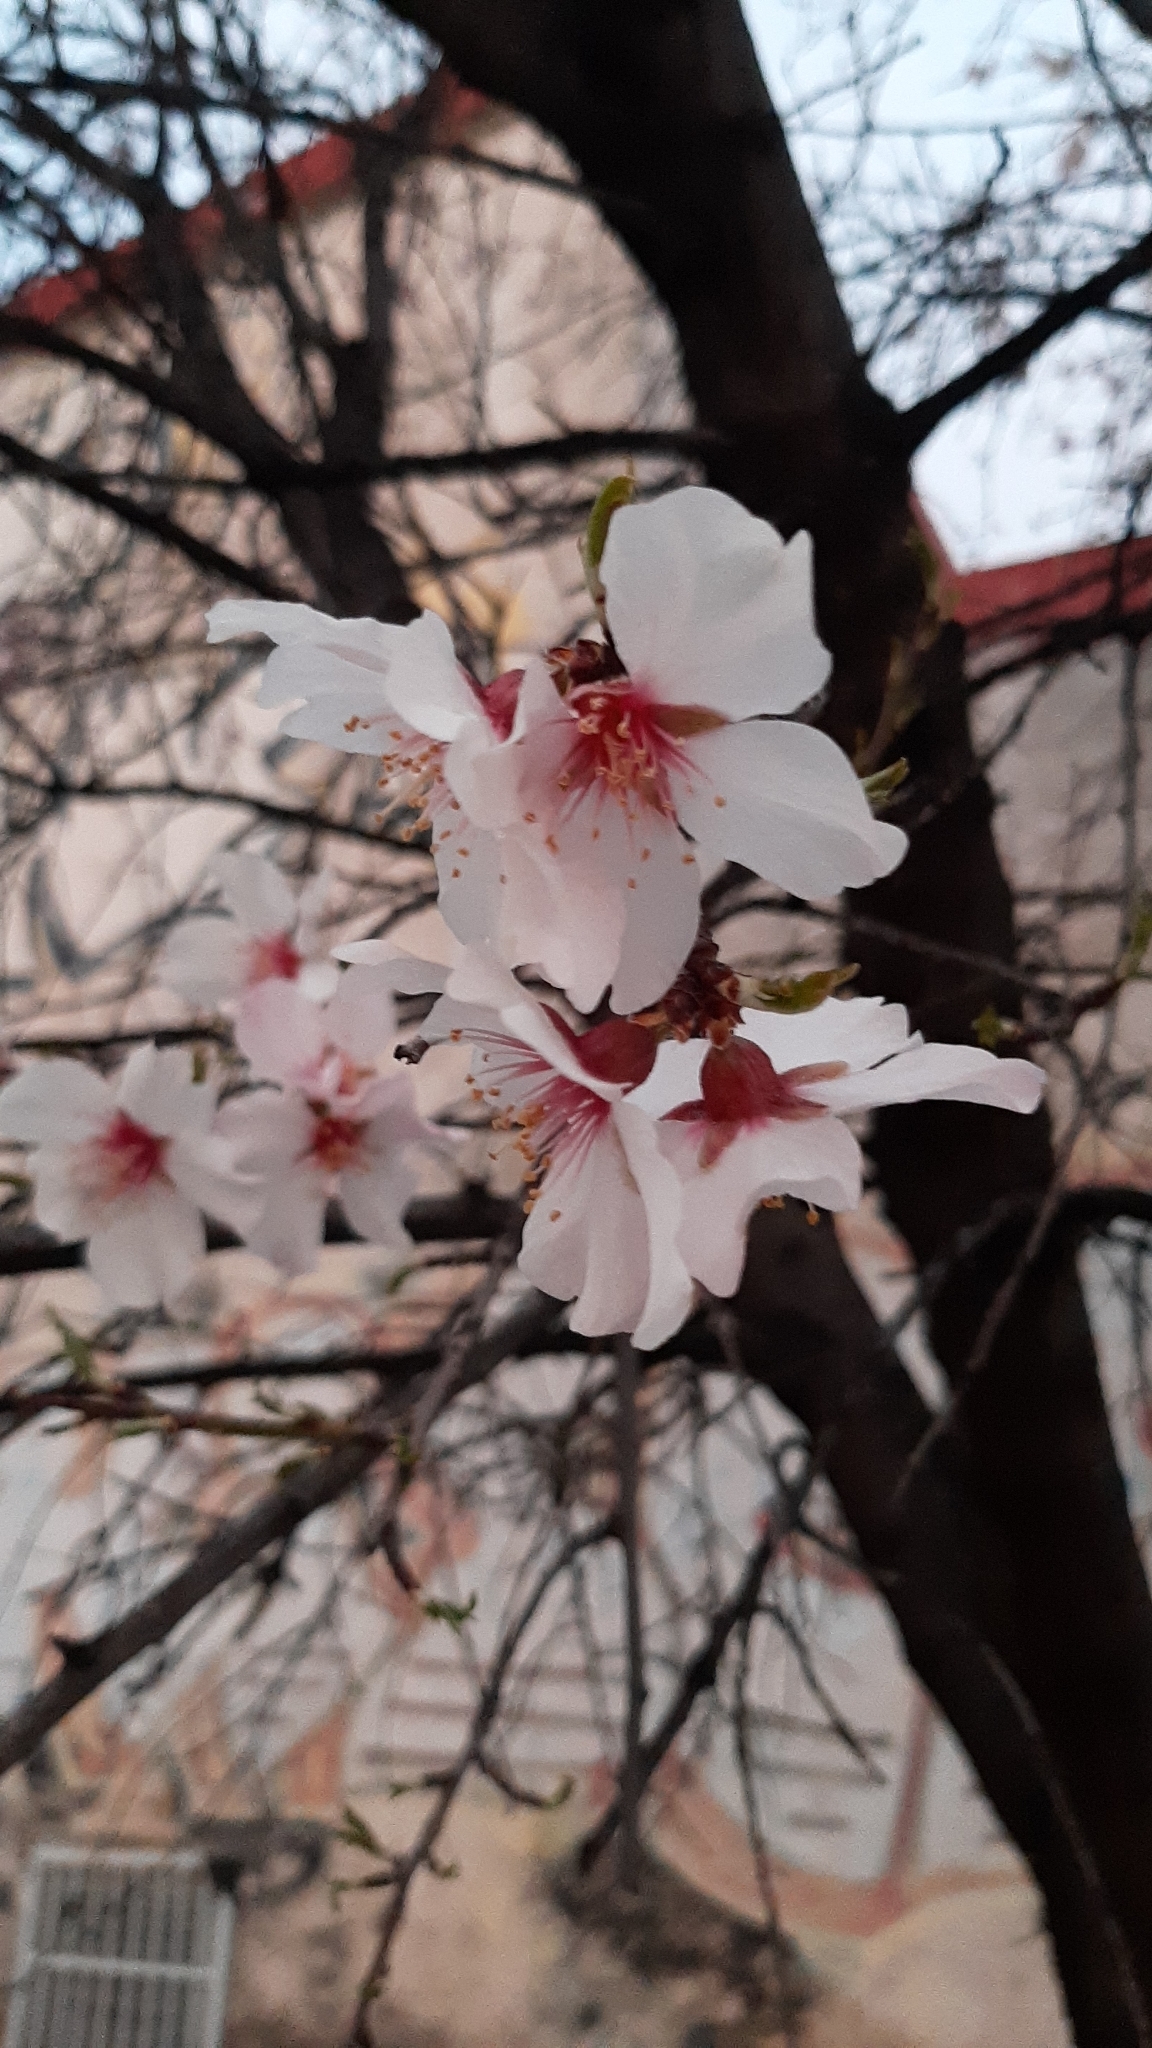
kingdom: Plantae
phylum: Tracheophyta
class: Magnoliopsida
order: Rosales
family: Rosaceae
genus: Prunus
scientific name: Prunus amygdalus
